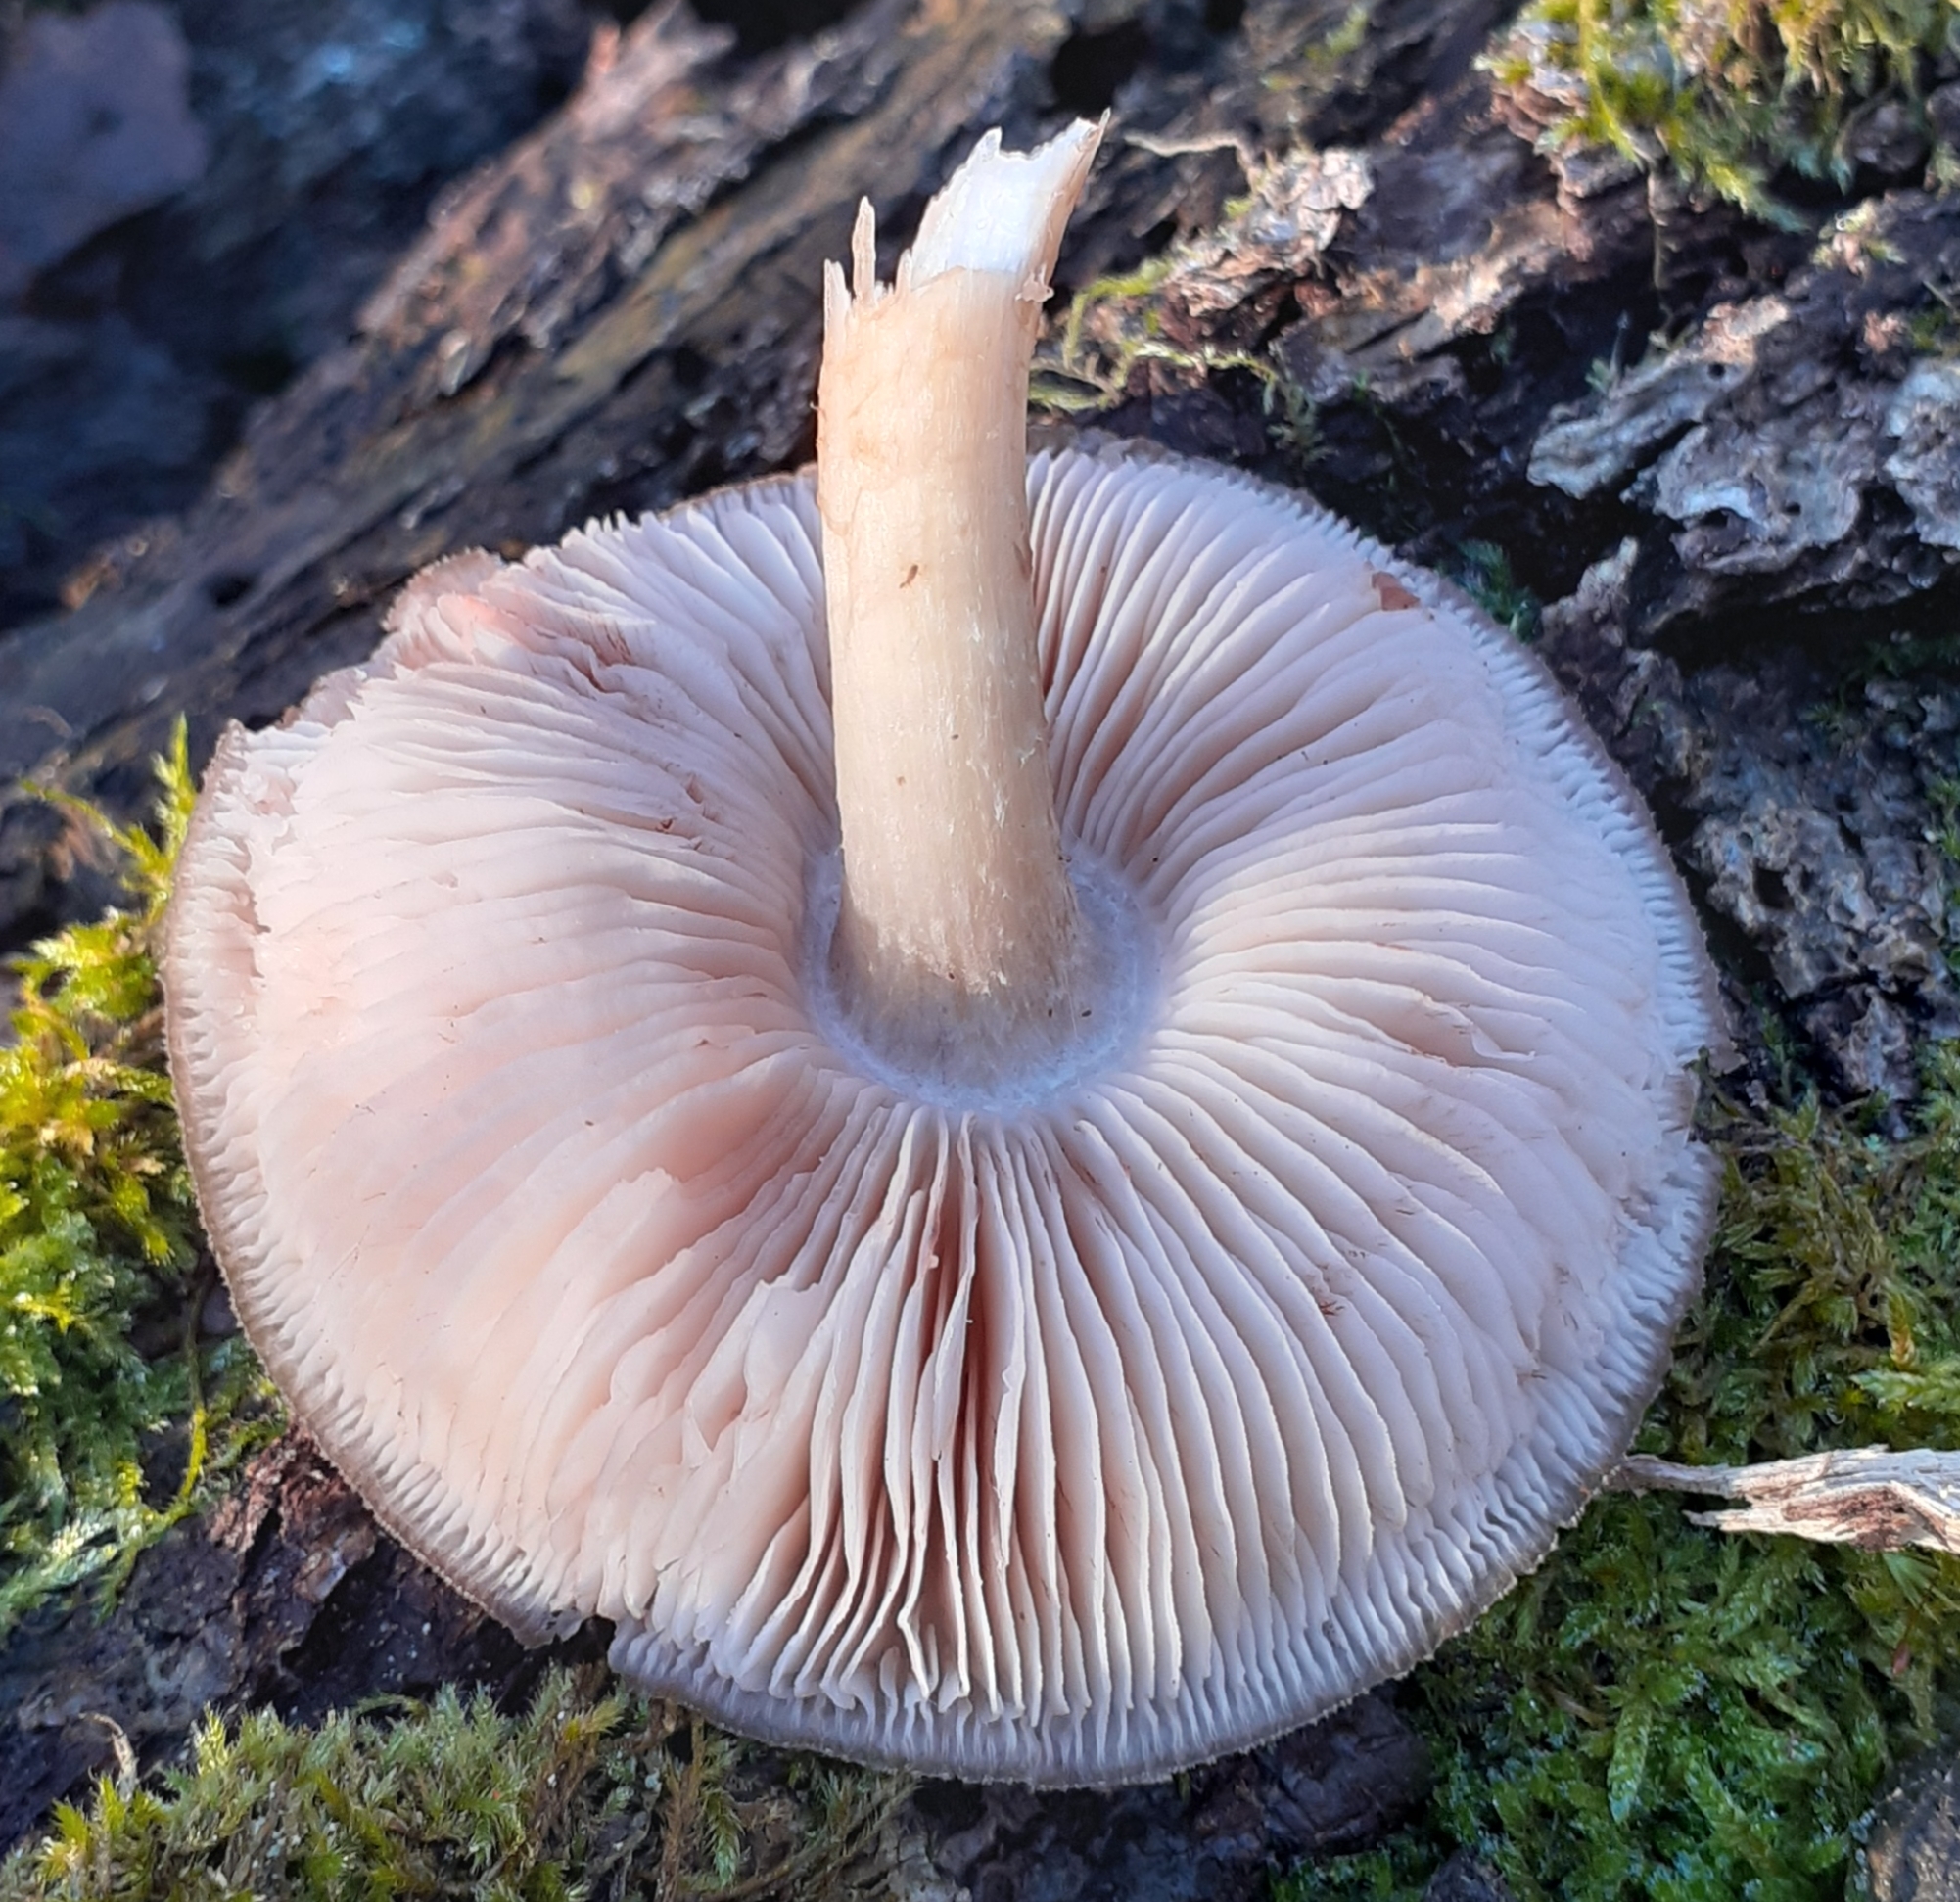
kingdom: Fungi
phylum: Basidiomycota
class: Agaricomycetes
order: Agaricales
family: Pluteaceae
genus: Pluteus
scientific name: Pluteus cervinus
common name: Deer shield
